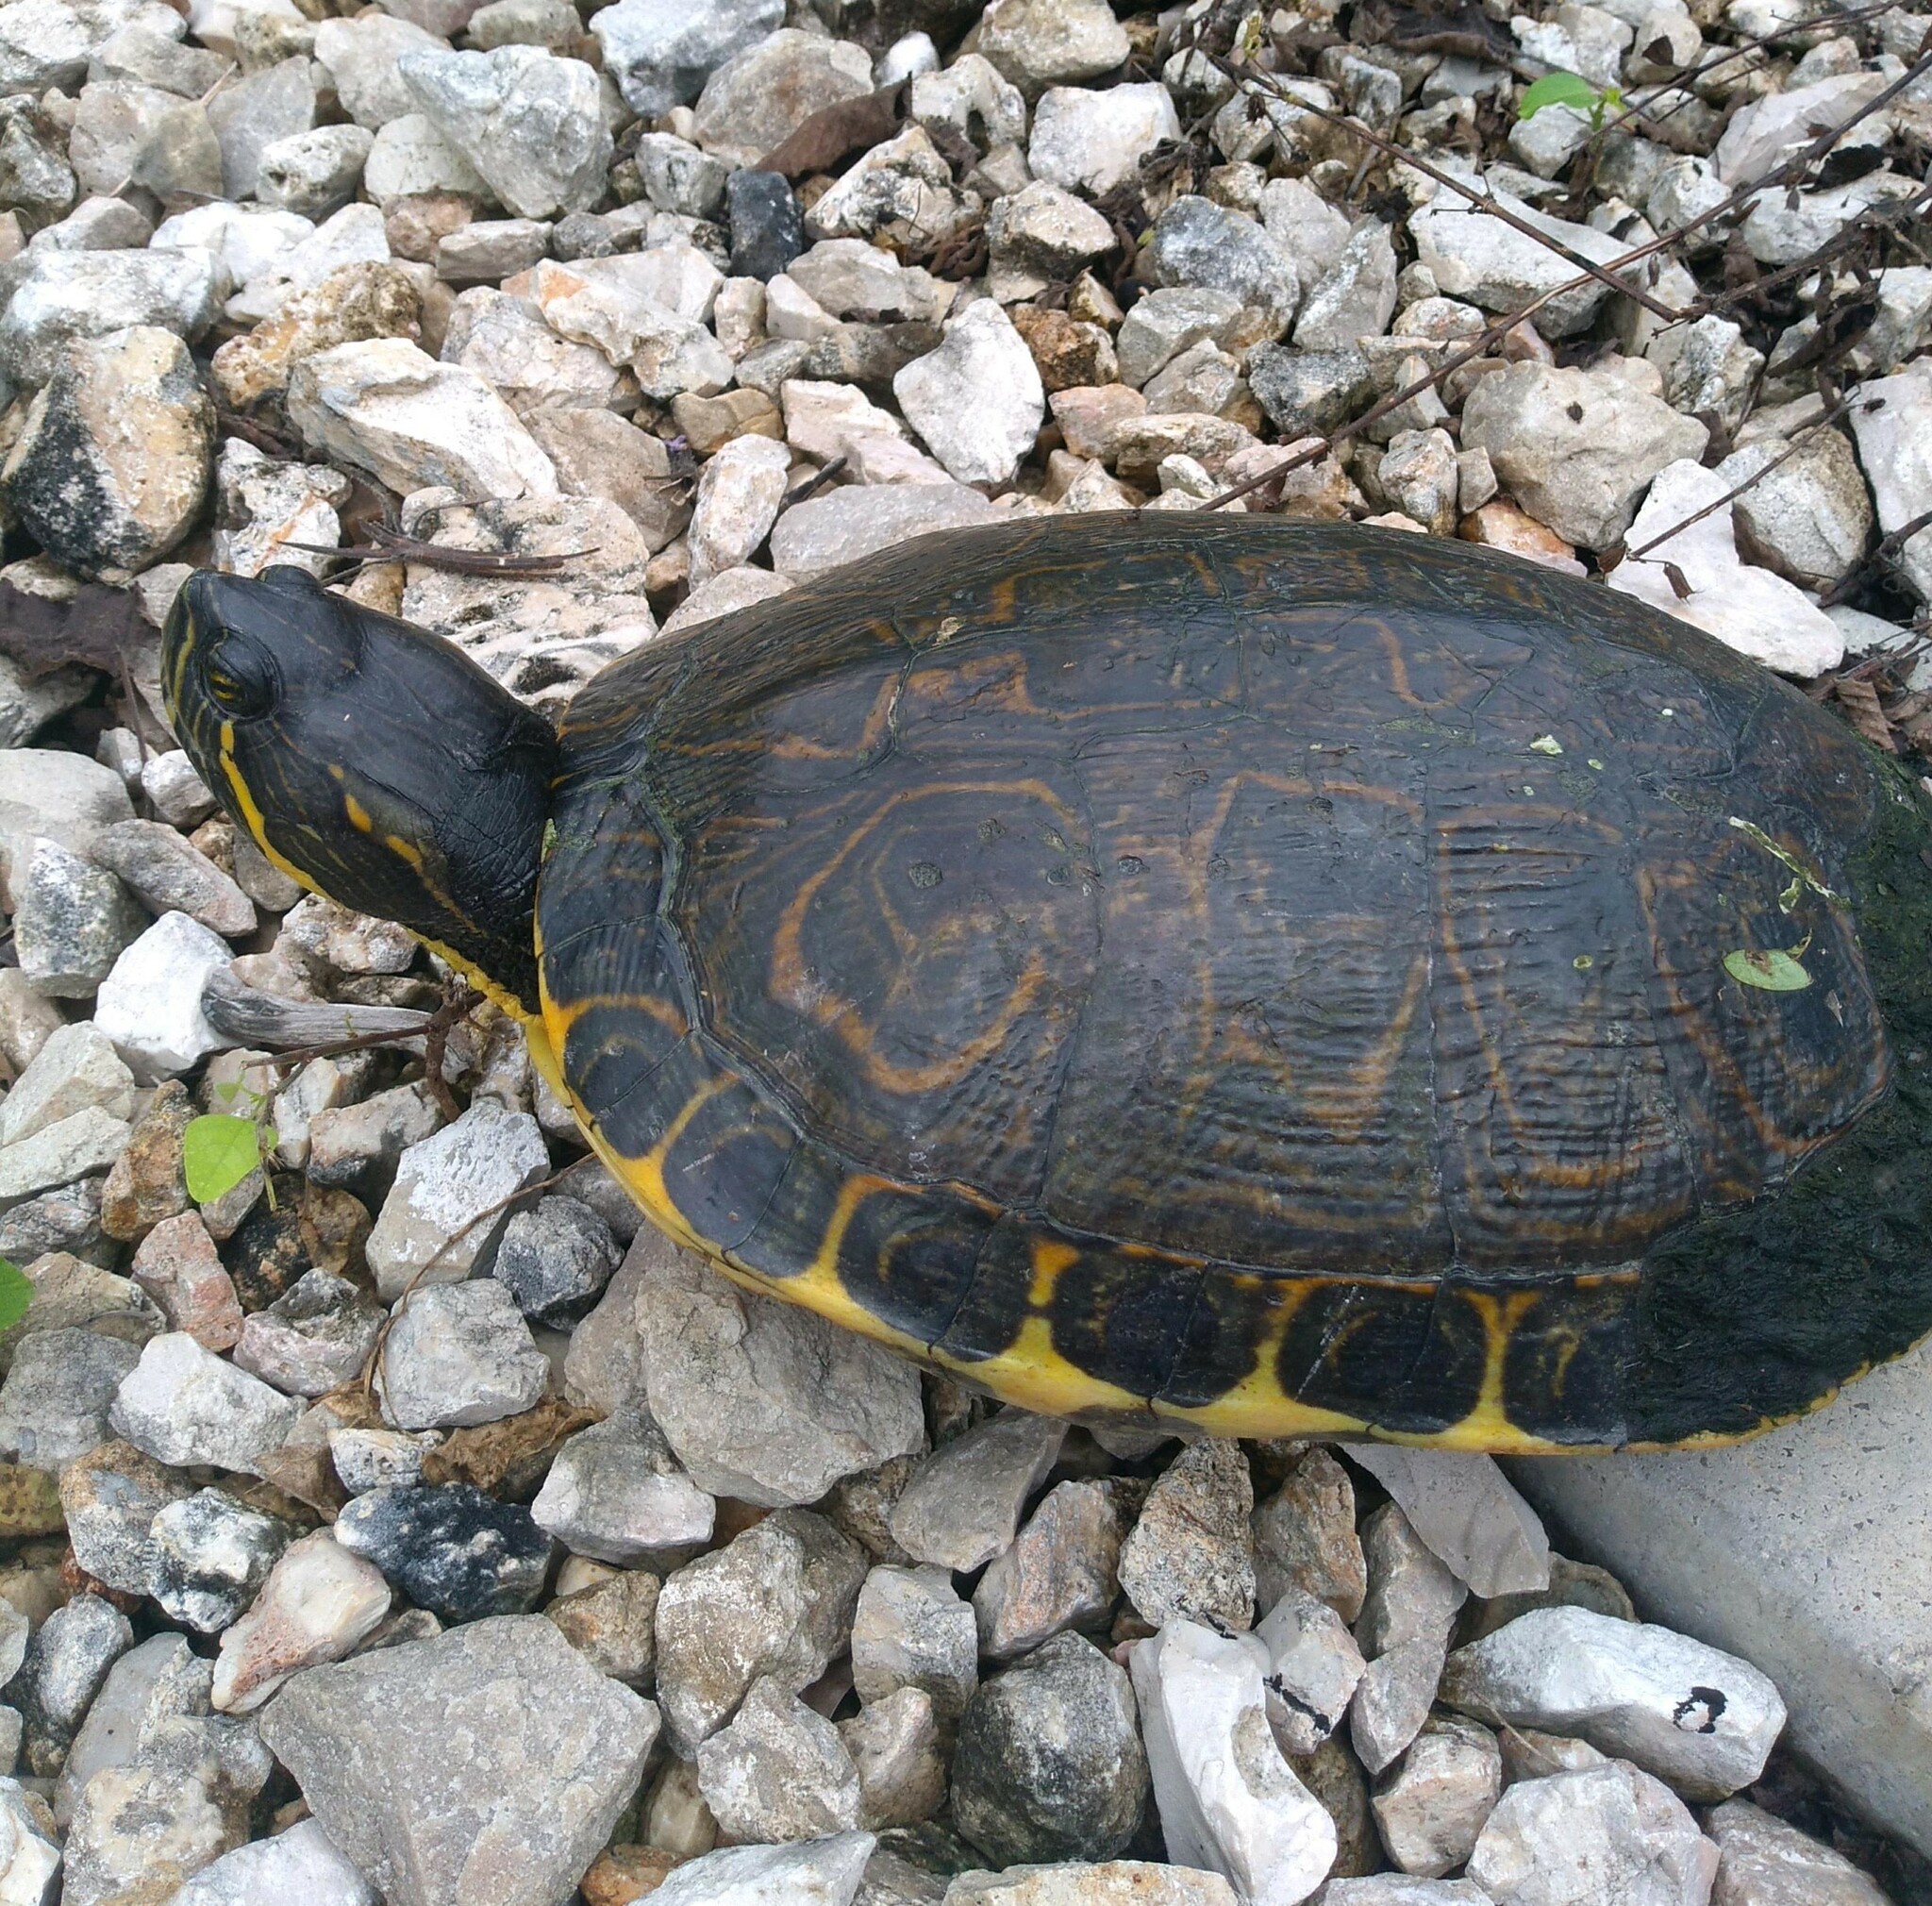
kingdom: Animalia
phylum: Chordata
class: Testudines
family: Emydidae
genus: Trachemys
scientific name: Trachemys venusta
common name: Mesoamerican slider
